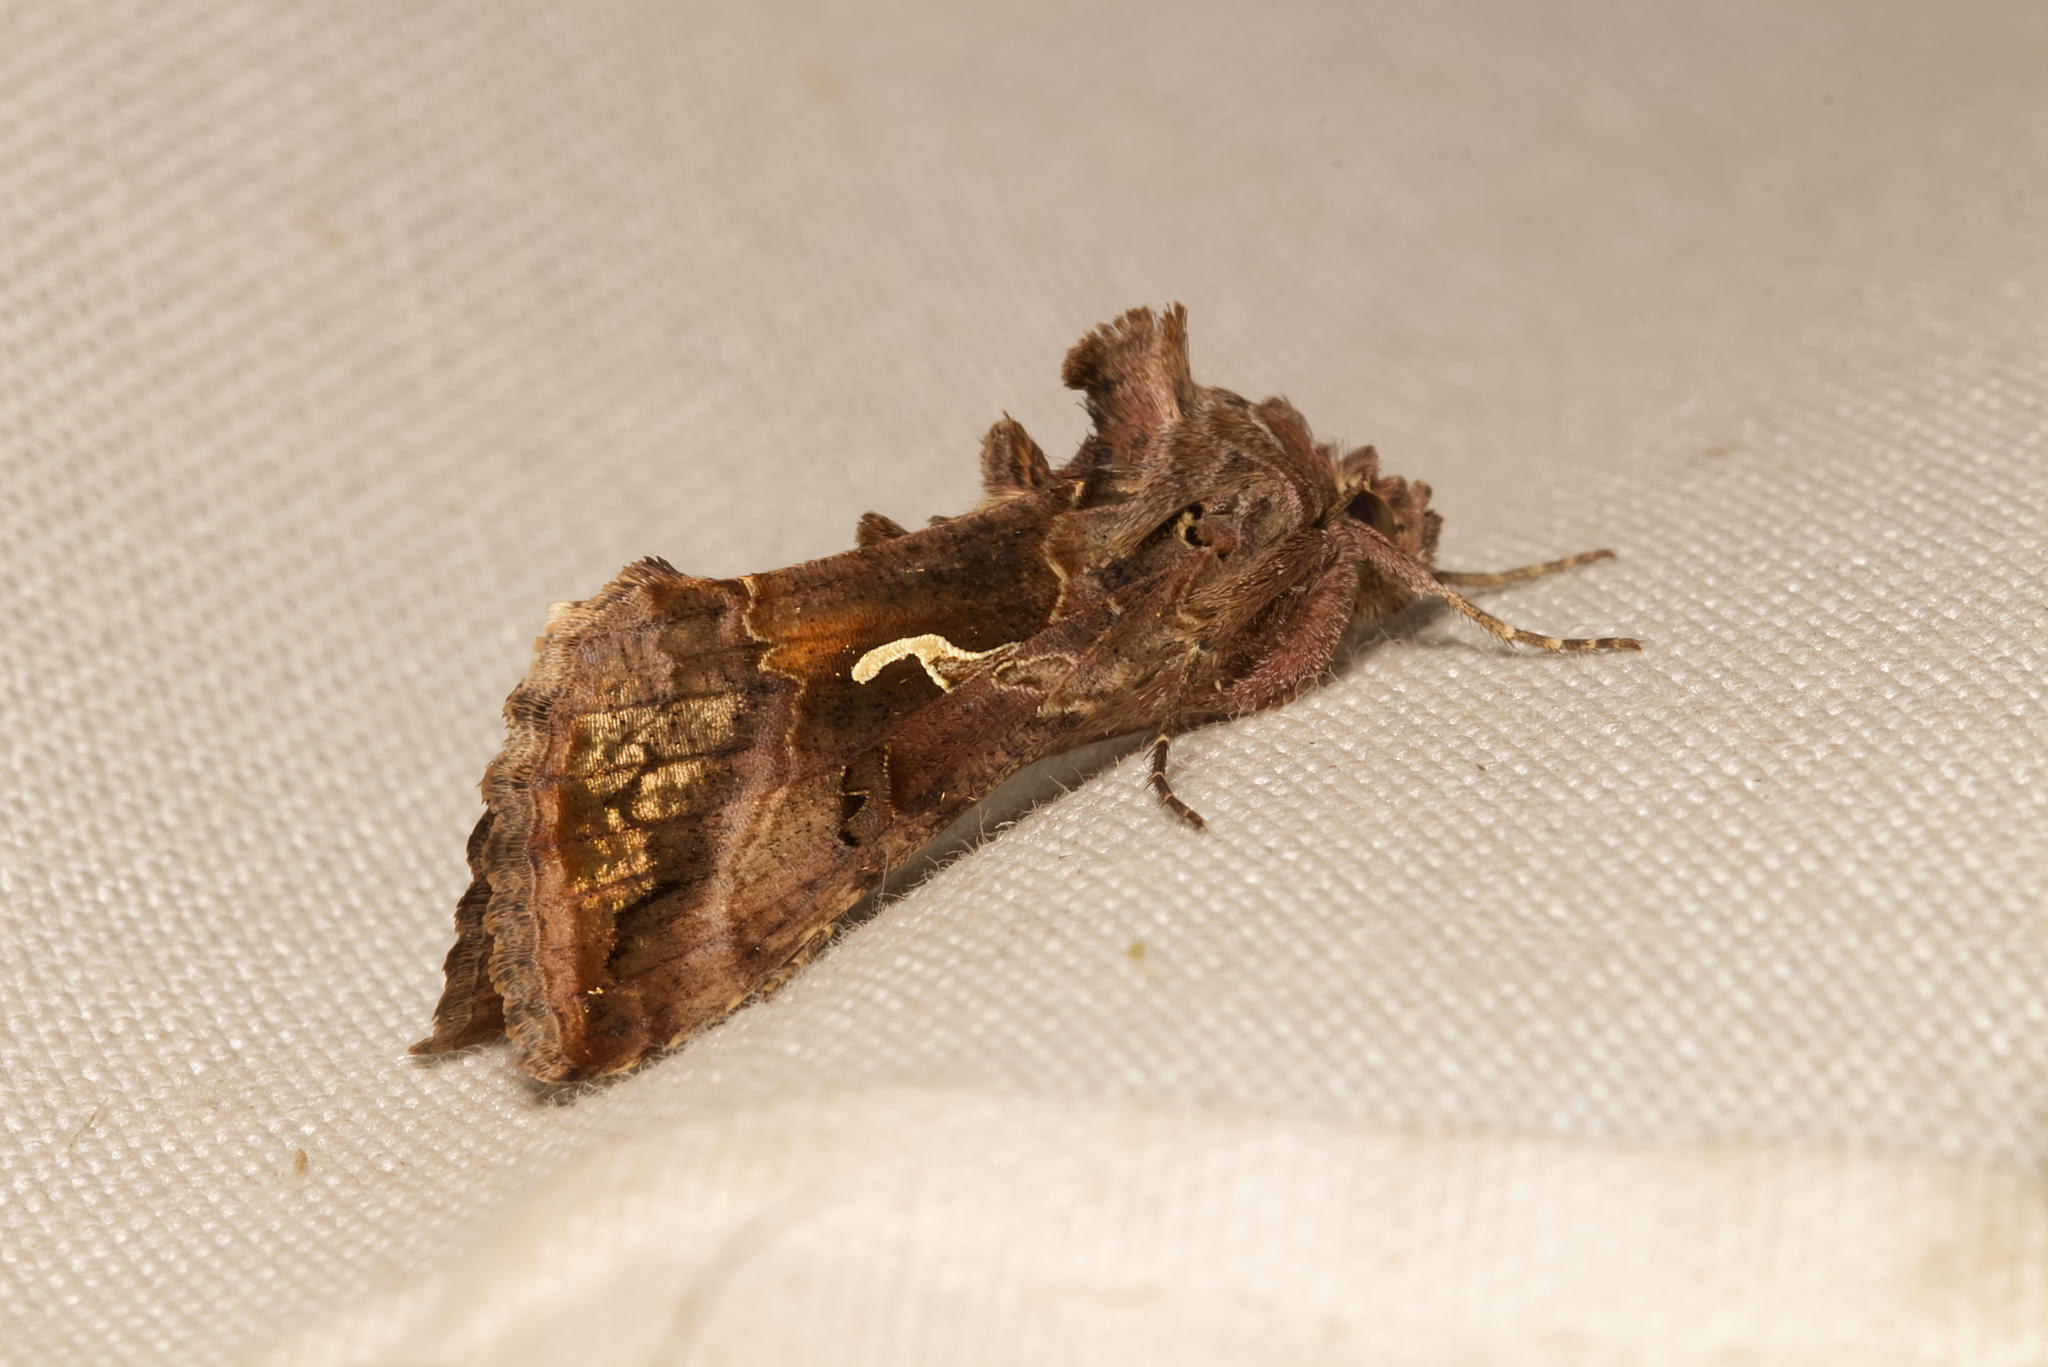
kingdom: Animalia
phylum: Arthropoda
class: Insecta
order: Lepidoptera
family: Noctuidae
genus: Autographa
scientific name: Autographa gamma
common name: Silver y
